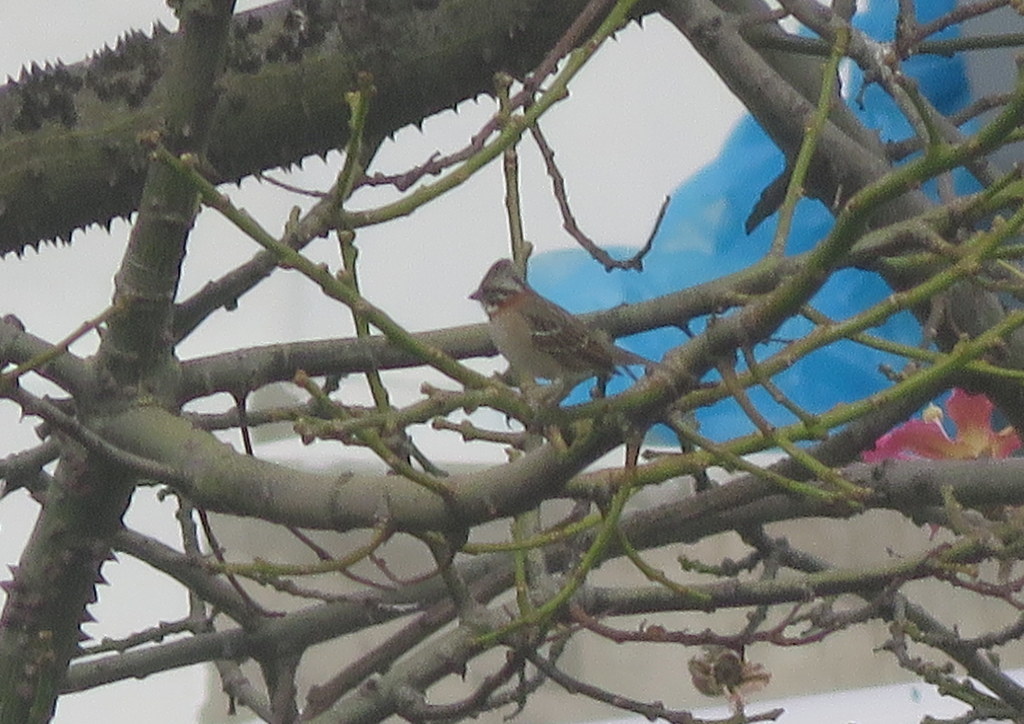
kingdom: Animalia
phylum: Chordata
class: Aves
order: Passeriformes
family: Passerellidae
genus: Zonotrichia
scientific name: Zonotrichia capensis
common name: Rufous-collared sparrow
